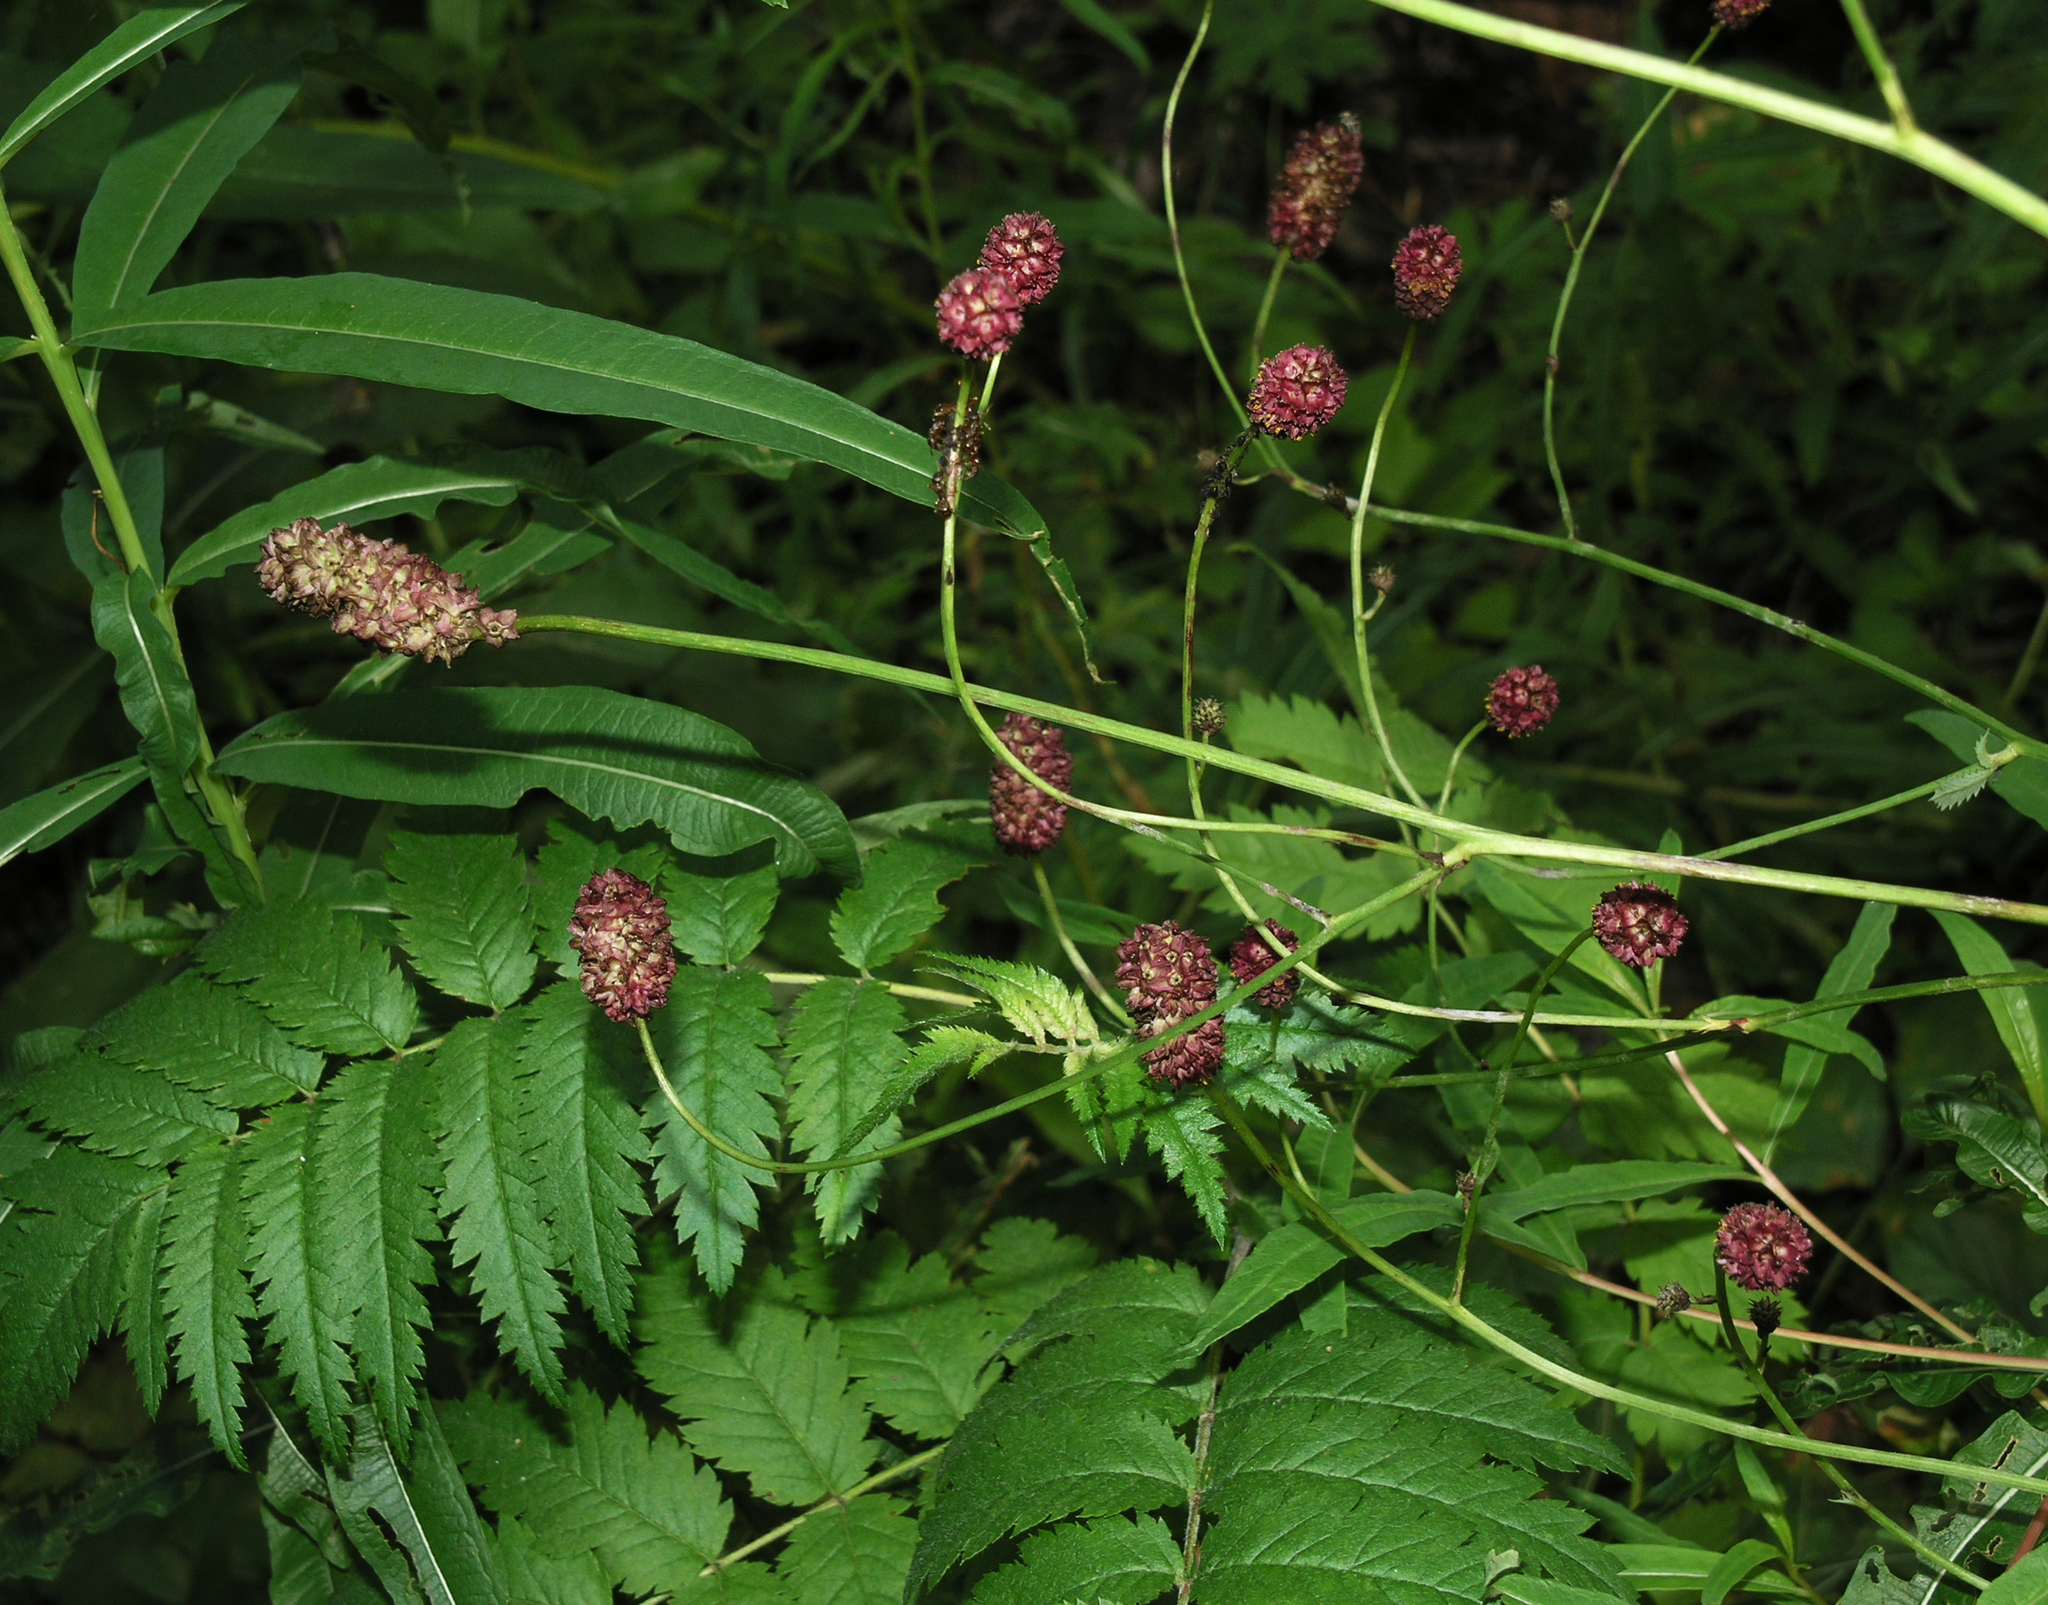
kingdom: Plantae
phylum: Tracheophyta
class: Magnoliopsida
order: Rosales
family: Rosaceae
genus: Sanguisorba
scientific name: Sanguisorba officinalis
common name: Great burnet
